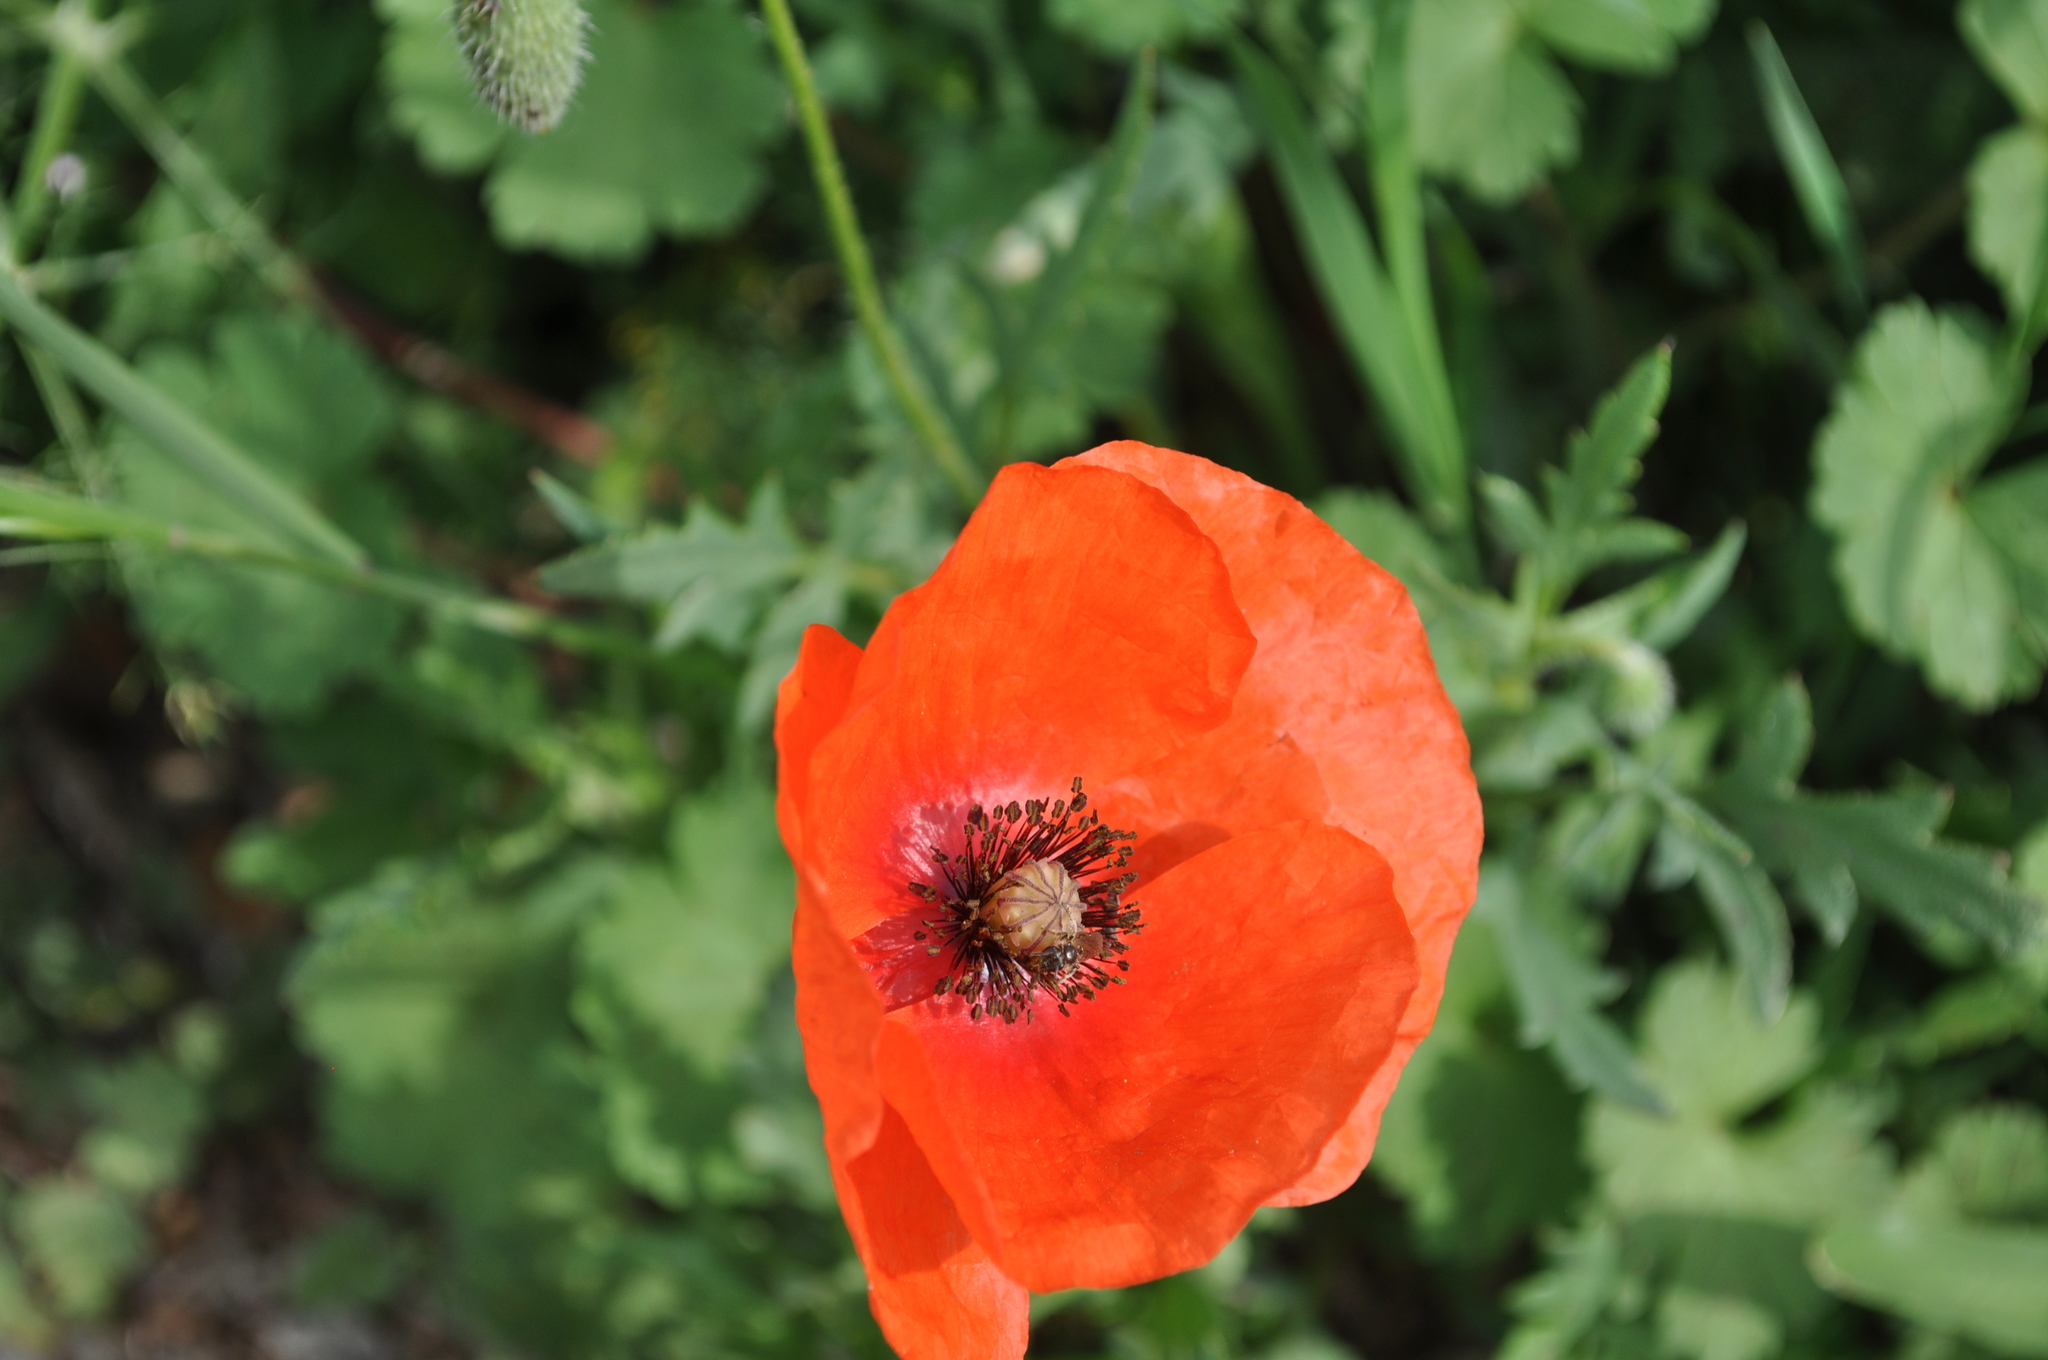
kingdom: Plantae
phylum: Tracheophyta
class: Magnoliopsida
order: Ranunculales
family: Papaveraceae
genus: Papaver
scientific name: Papaver rhoeas
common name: Corn poppy
